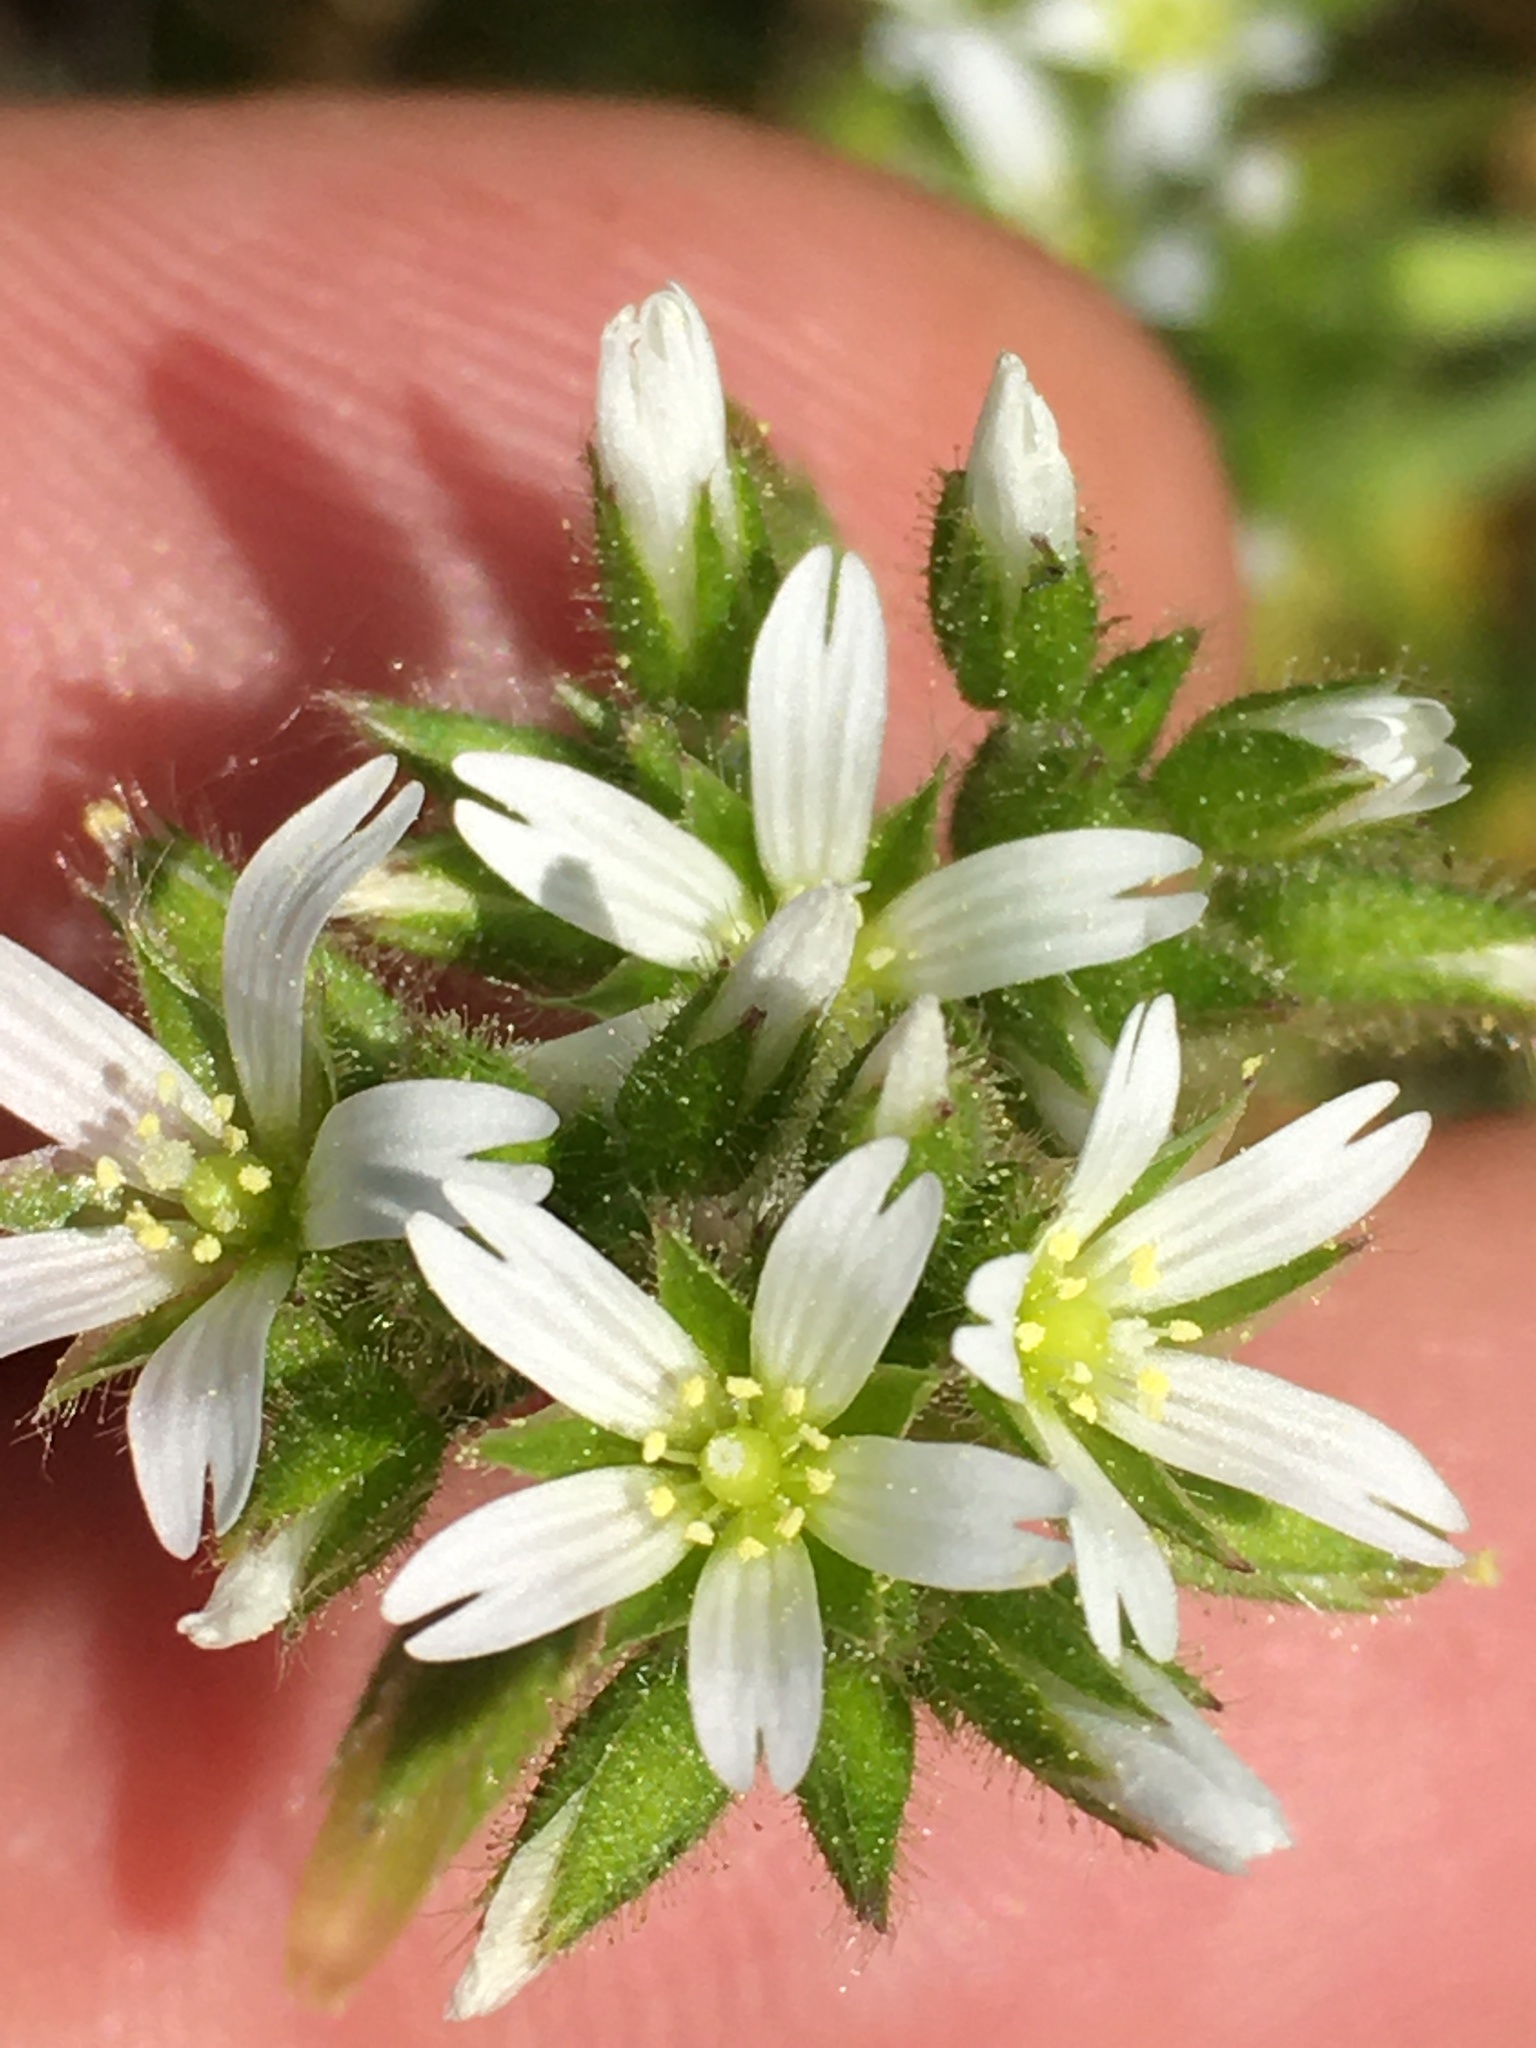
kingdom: Plantae
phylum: Tracheophyta
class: Magnoliopsida
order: Caryophyllales
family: Caryophyllaceae
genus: Cerastium
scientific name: Cerastium glomeratum
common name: Sticky chickweed
